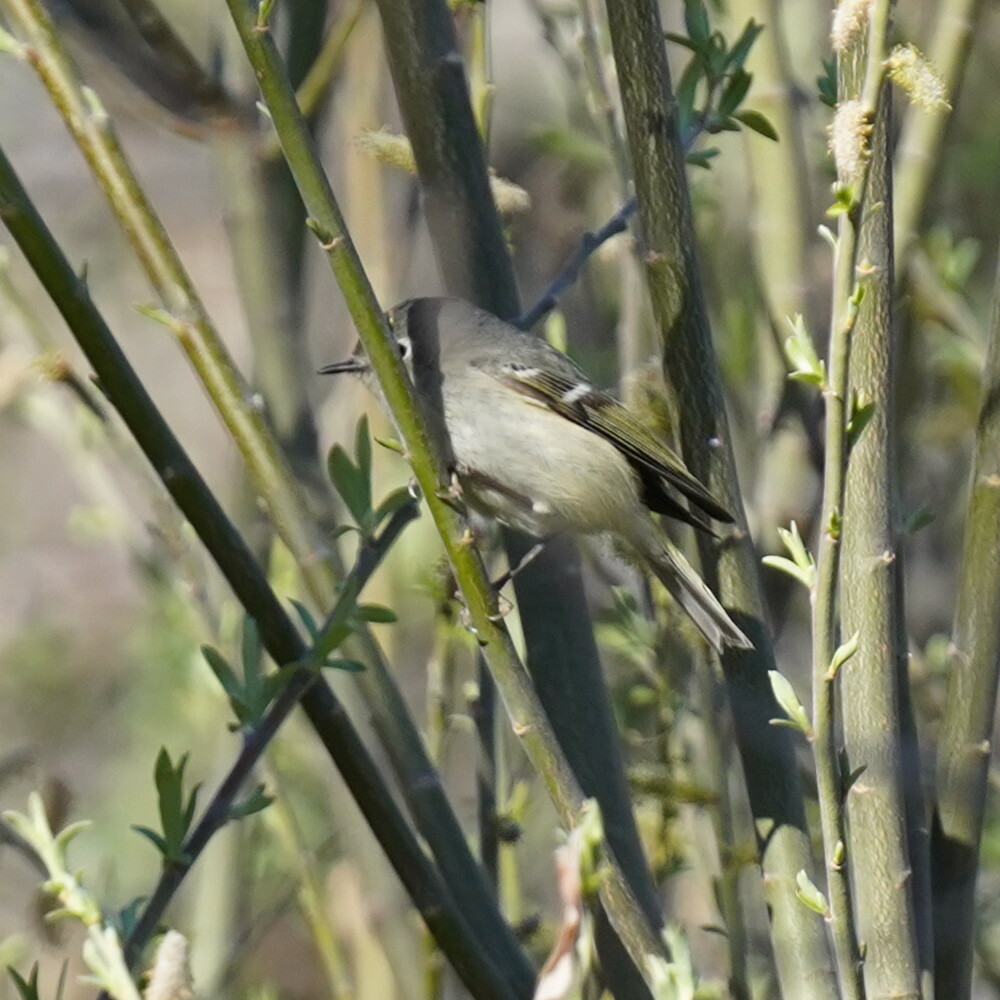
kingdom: Animalia
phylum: Chordata
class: Aves
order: Passeriformes
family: Regulidae
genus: Regulus
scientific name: Regulus calendula
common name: Ruby-crowned kinglet
